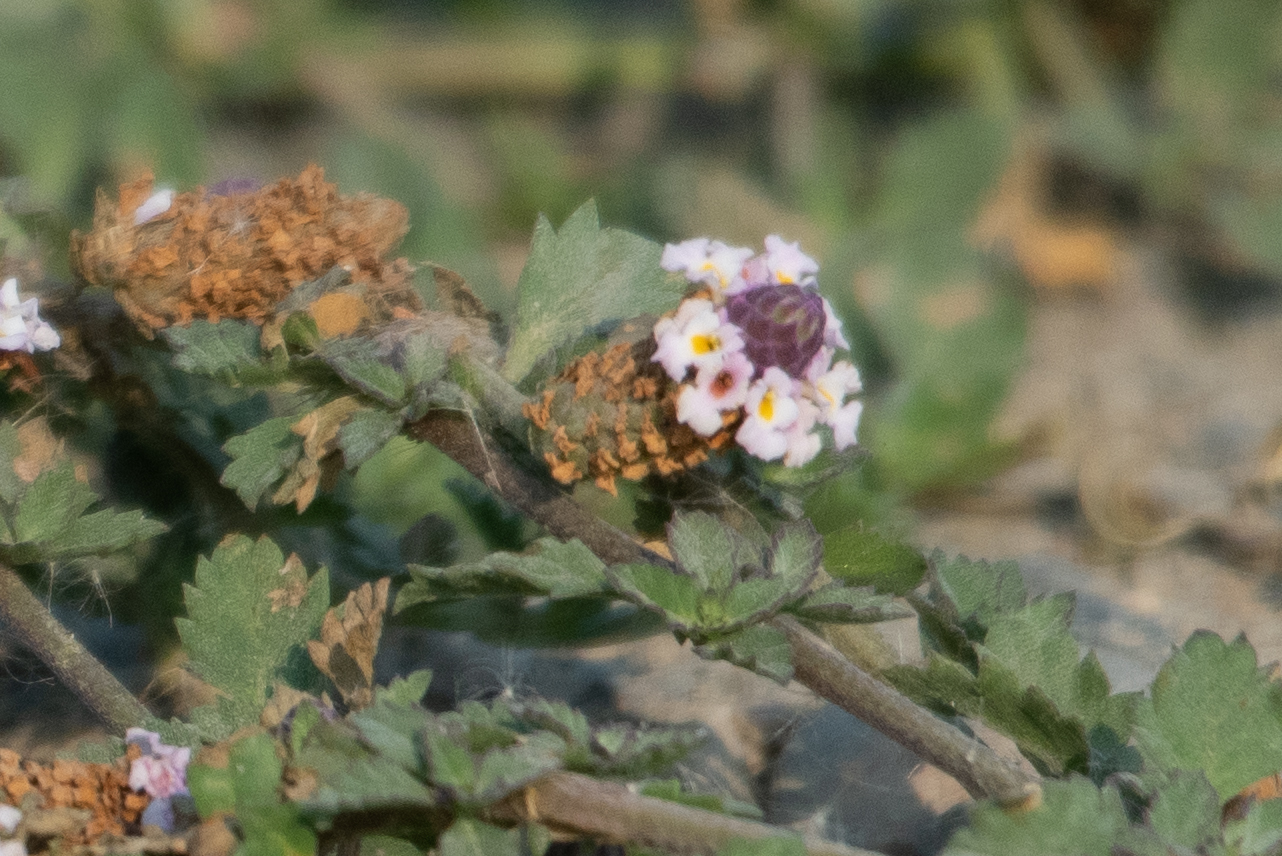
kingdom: Plantae
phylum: Tracheophyta
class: Magnoliopsida
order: Lamiales
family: Verbenaceae
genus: Phyla
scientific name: Phyla nodiflora
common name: Frogfruit
